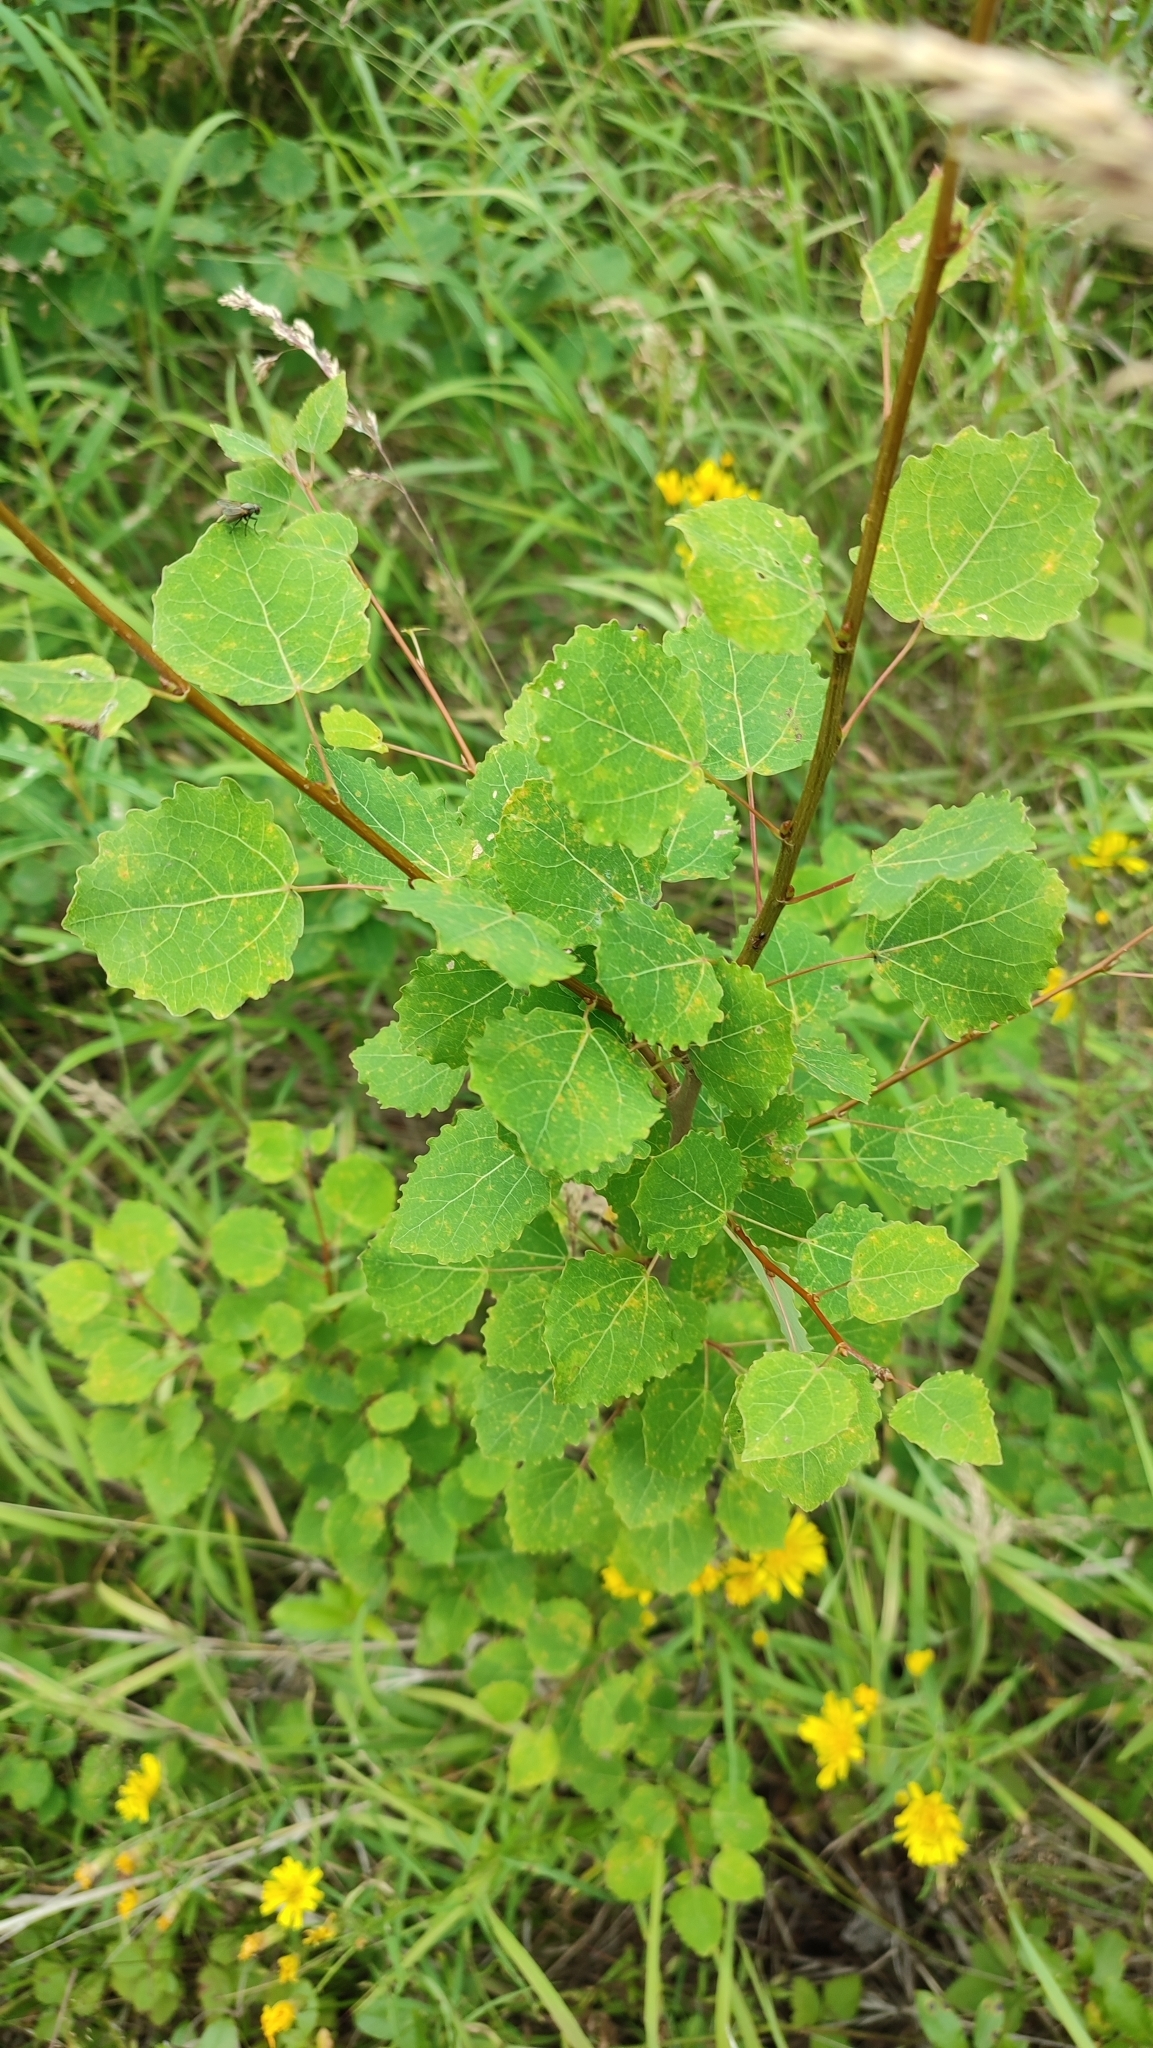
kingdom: Plantae
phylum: Tracheophyta
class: Magnoliopsida
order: Malpighiales
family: Salicaceae
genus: Populus
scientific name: Populus tremula
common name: European aspen
